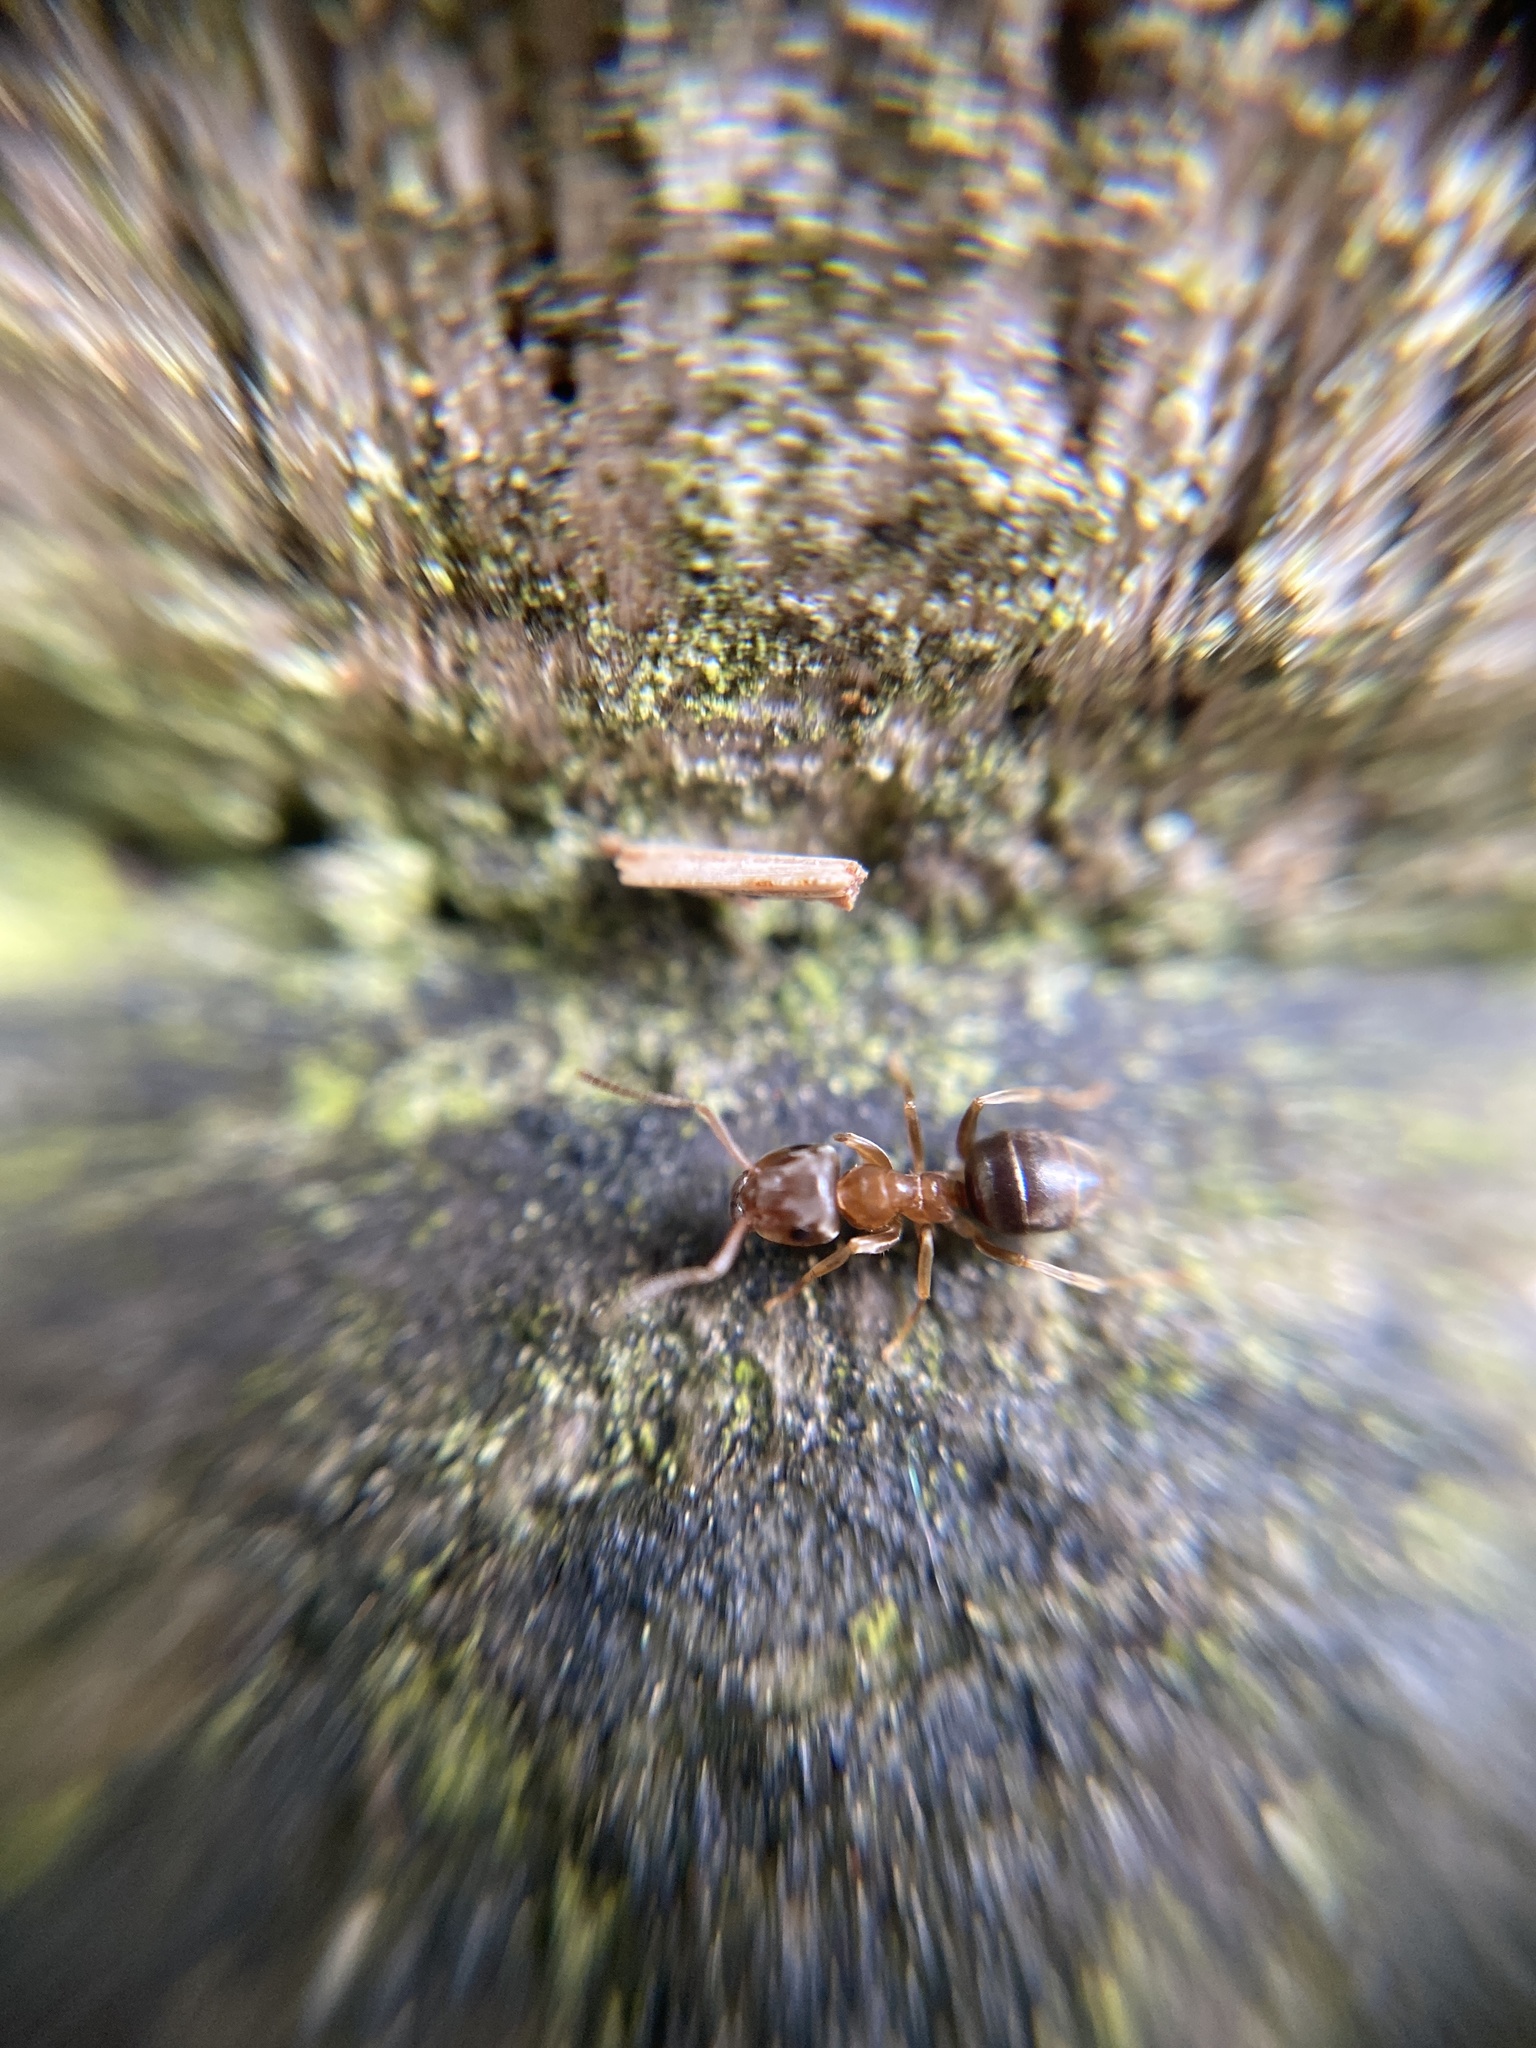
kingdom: Animalia
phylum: Arthropoda
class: Insecta
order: Hymenoptera
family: Formicidae
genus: Lasius
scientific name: Lasius brunneus
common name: Brown ant
